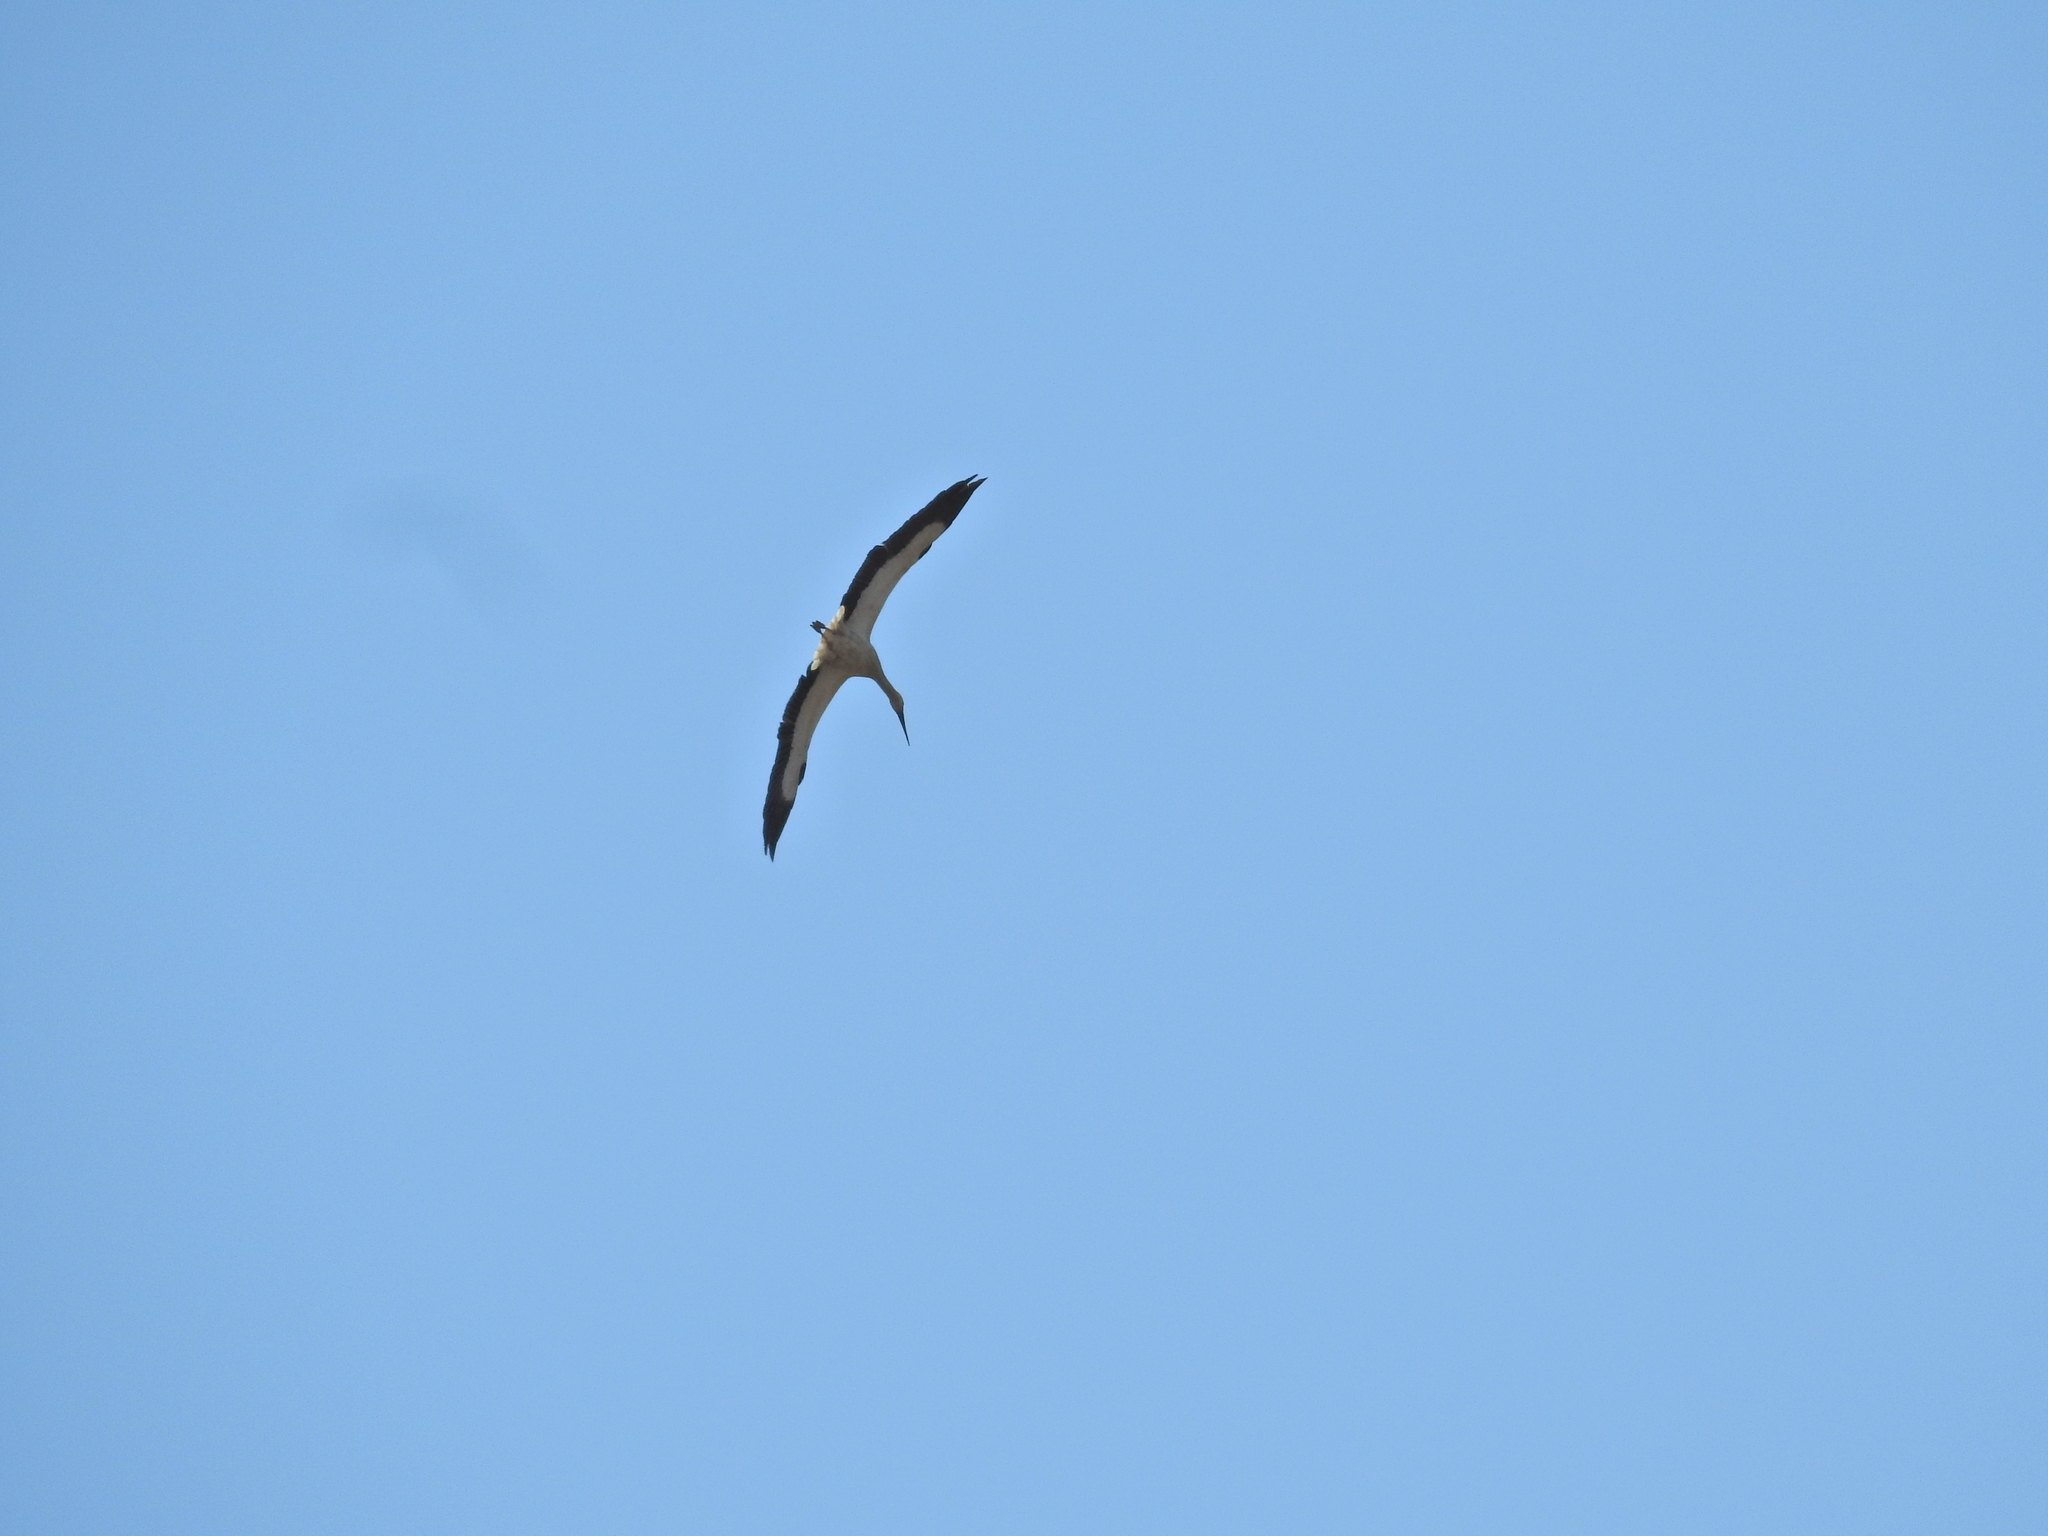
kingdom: Animalia
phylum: Chordata
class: Aves
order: Ciconiiformes
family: Ciconiidae
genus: Ciconia
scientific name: Ciconia ciconia
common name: White stork
